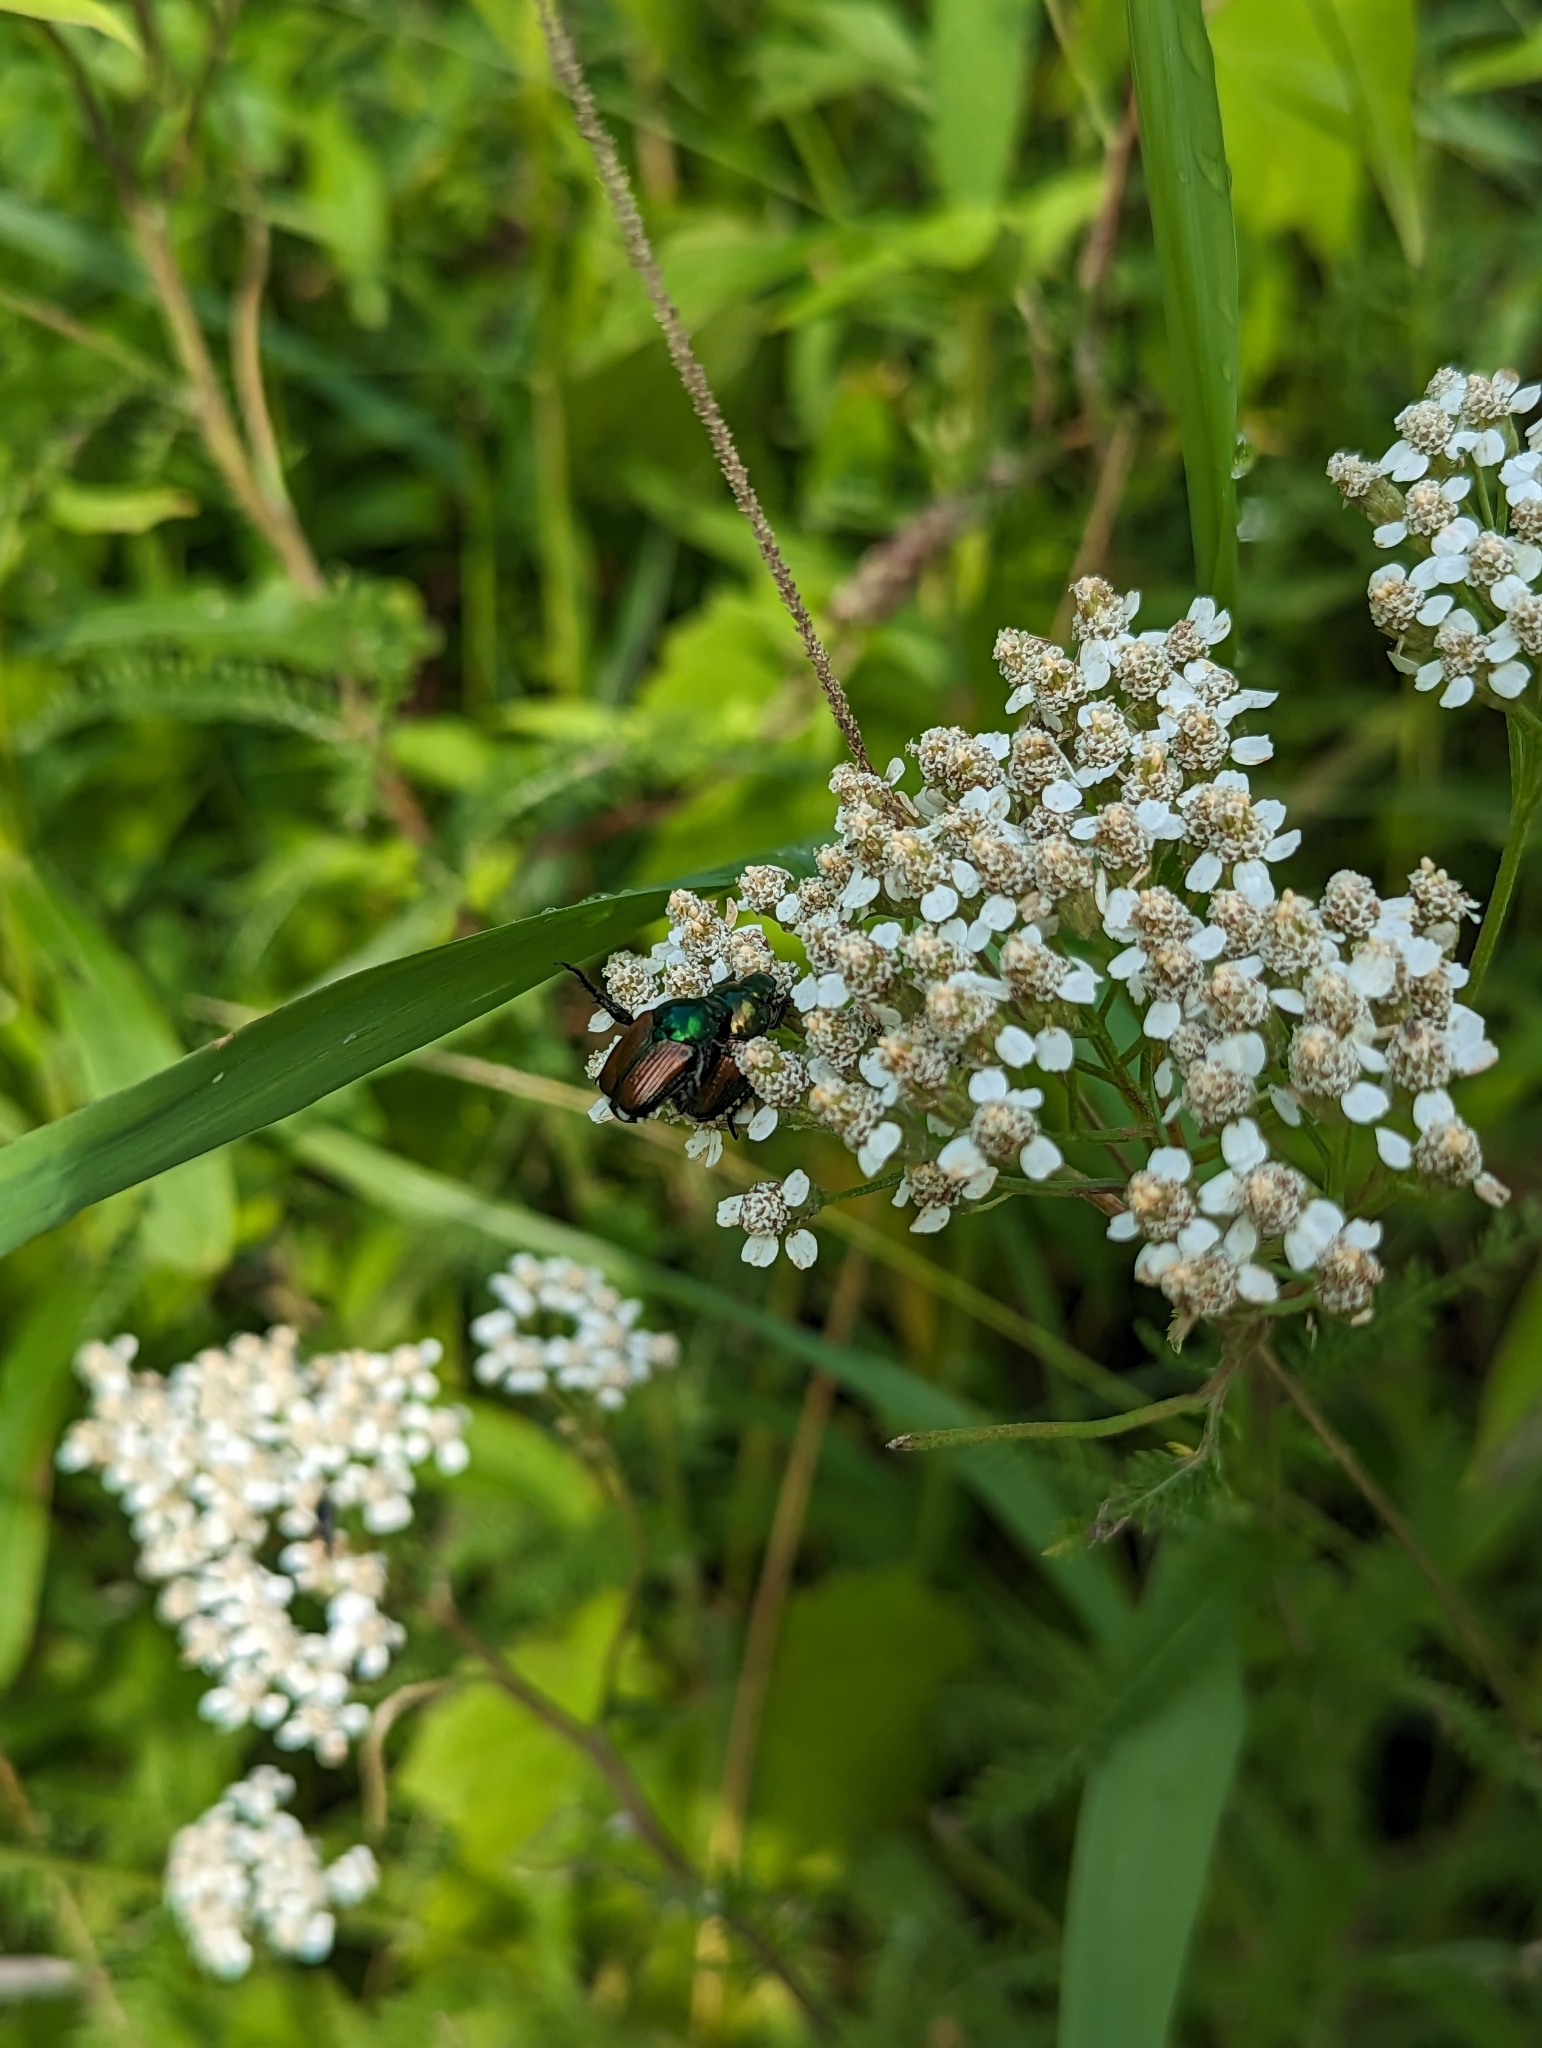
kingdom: Animalia
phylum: Arthropoda
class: Insecta
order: Coleoptera
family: Scarabaeidae
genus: Popillia
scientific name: Popillia japonica
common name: Japanese beetle
